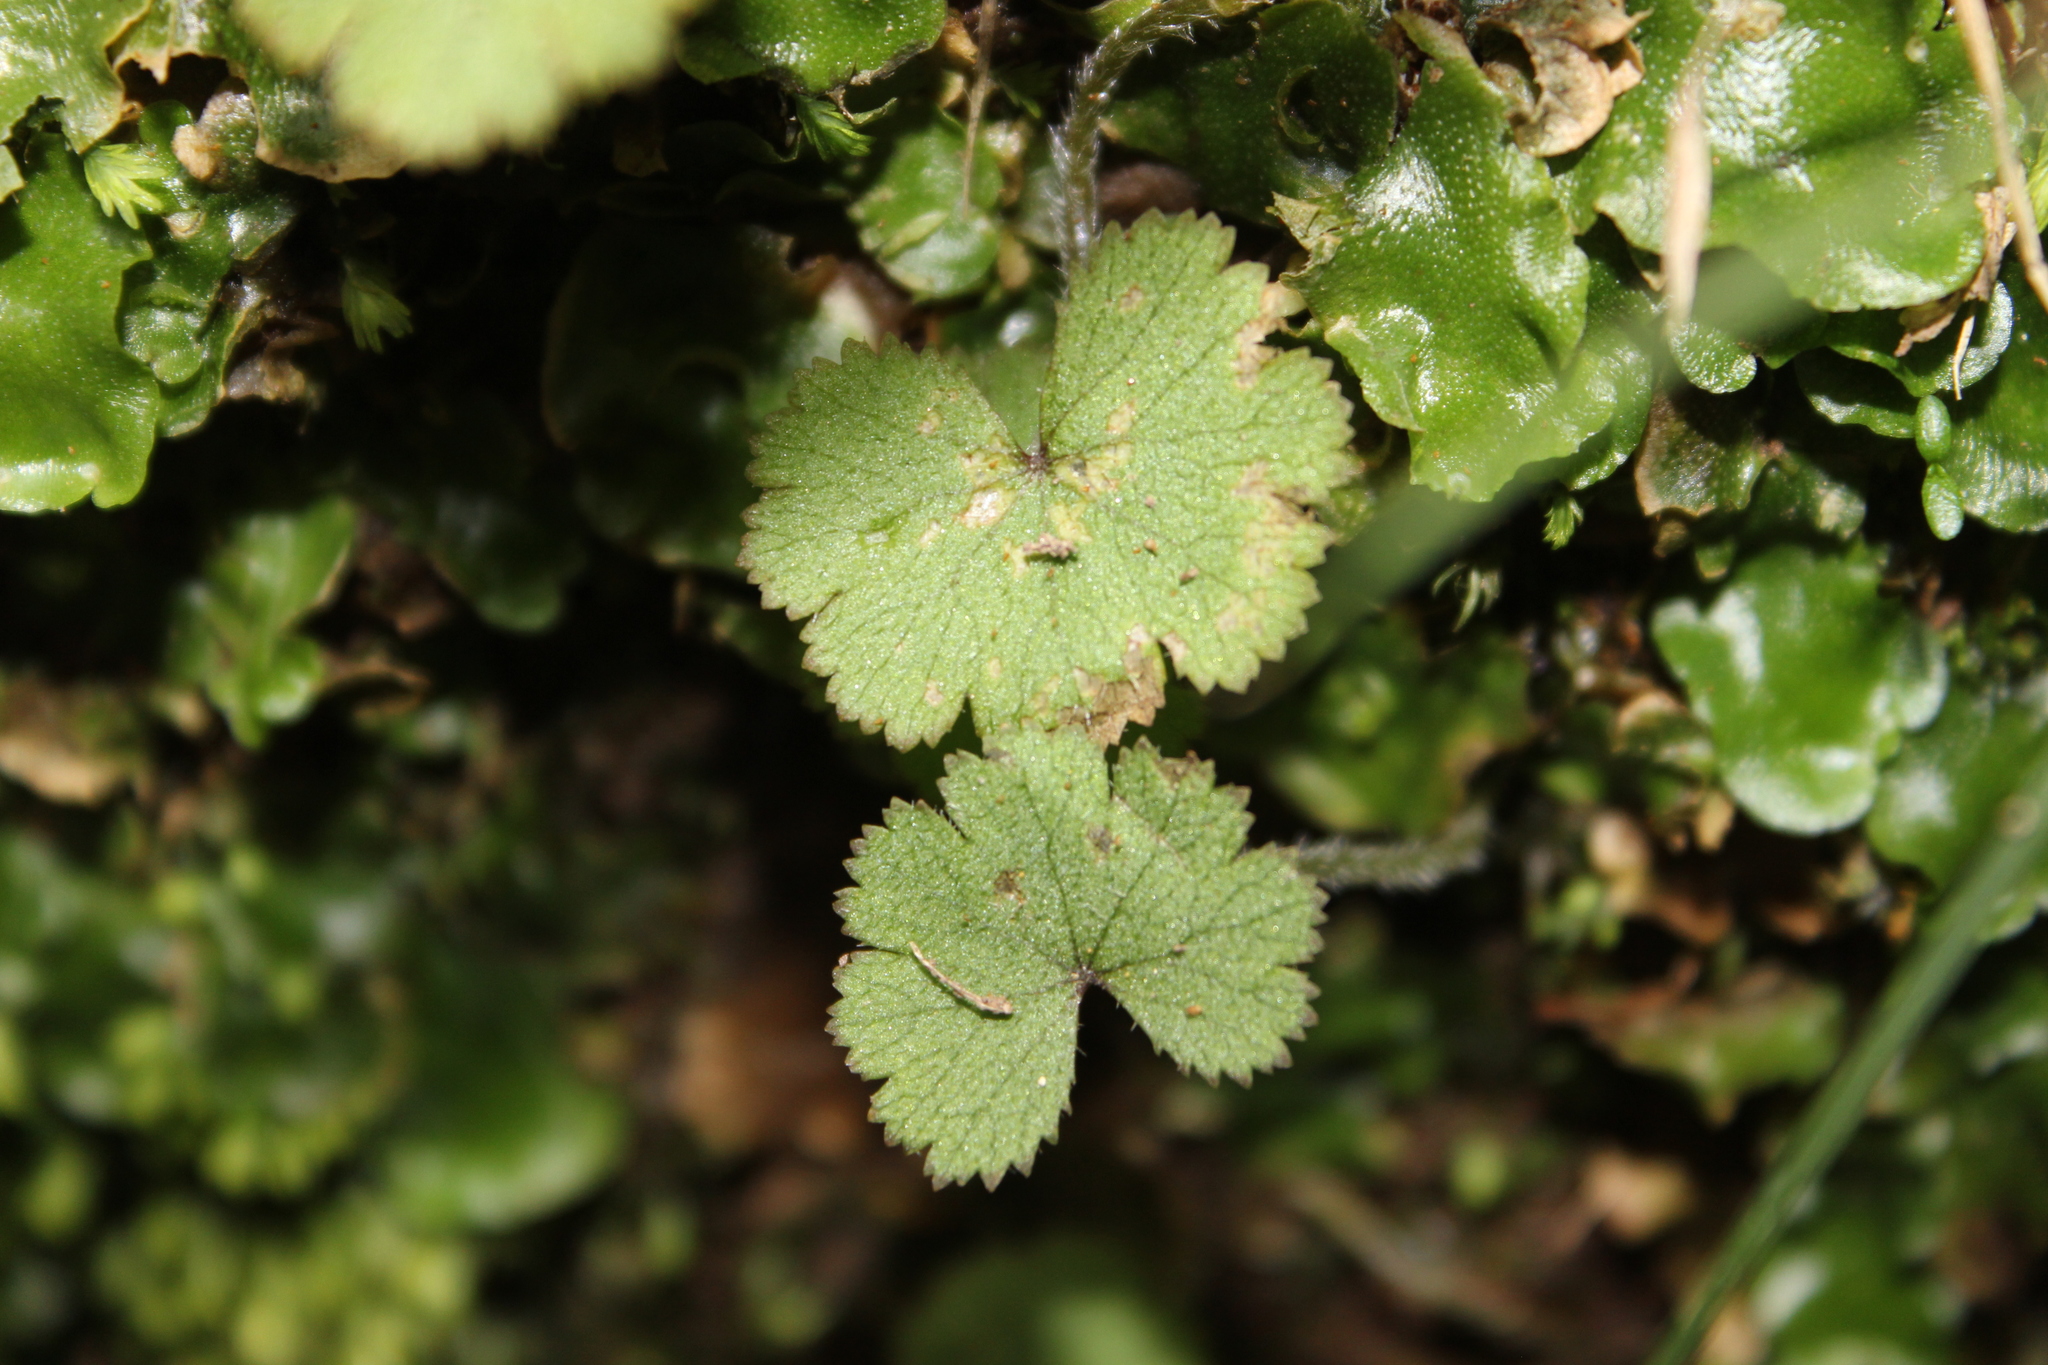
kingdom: Plantae
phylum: Tracheophyta
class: Magnoliopsida
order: Apiales
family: Araliaceae
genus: Hydrocotyle
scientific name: Hydrocotyle moschata
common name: Hairy pennywort
